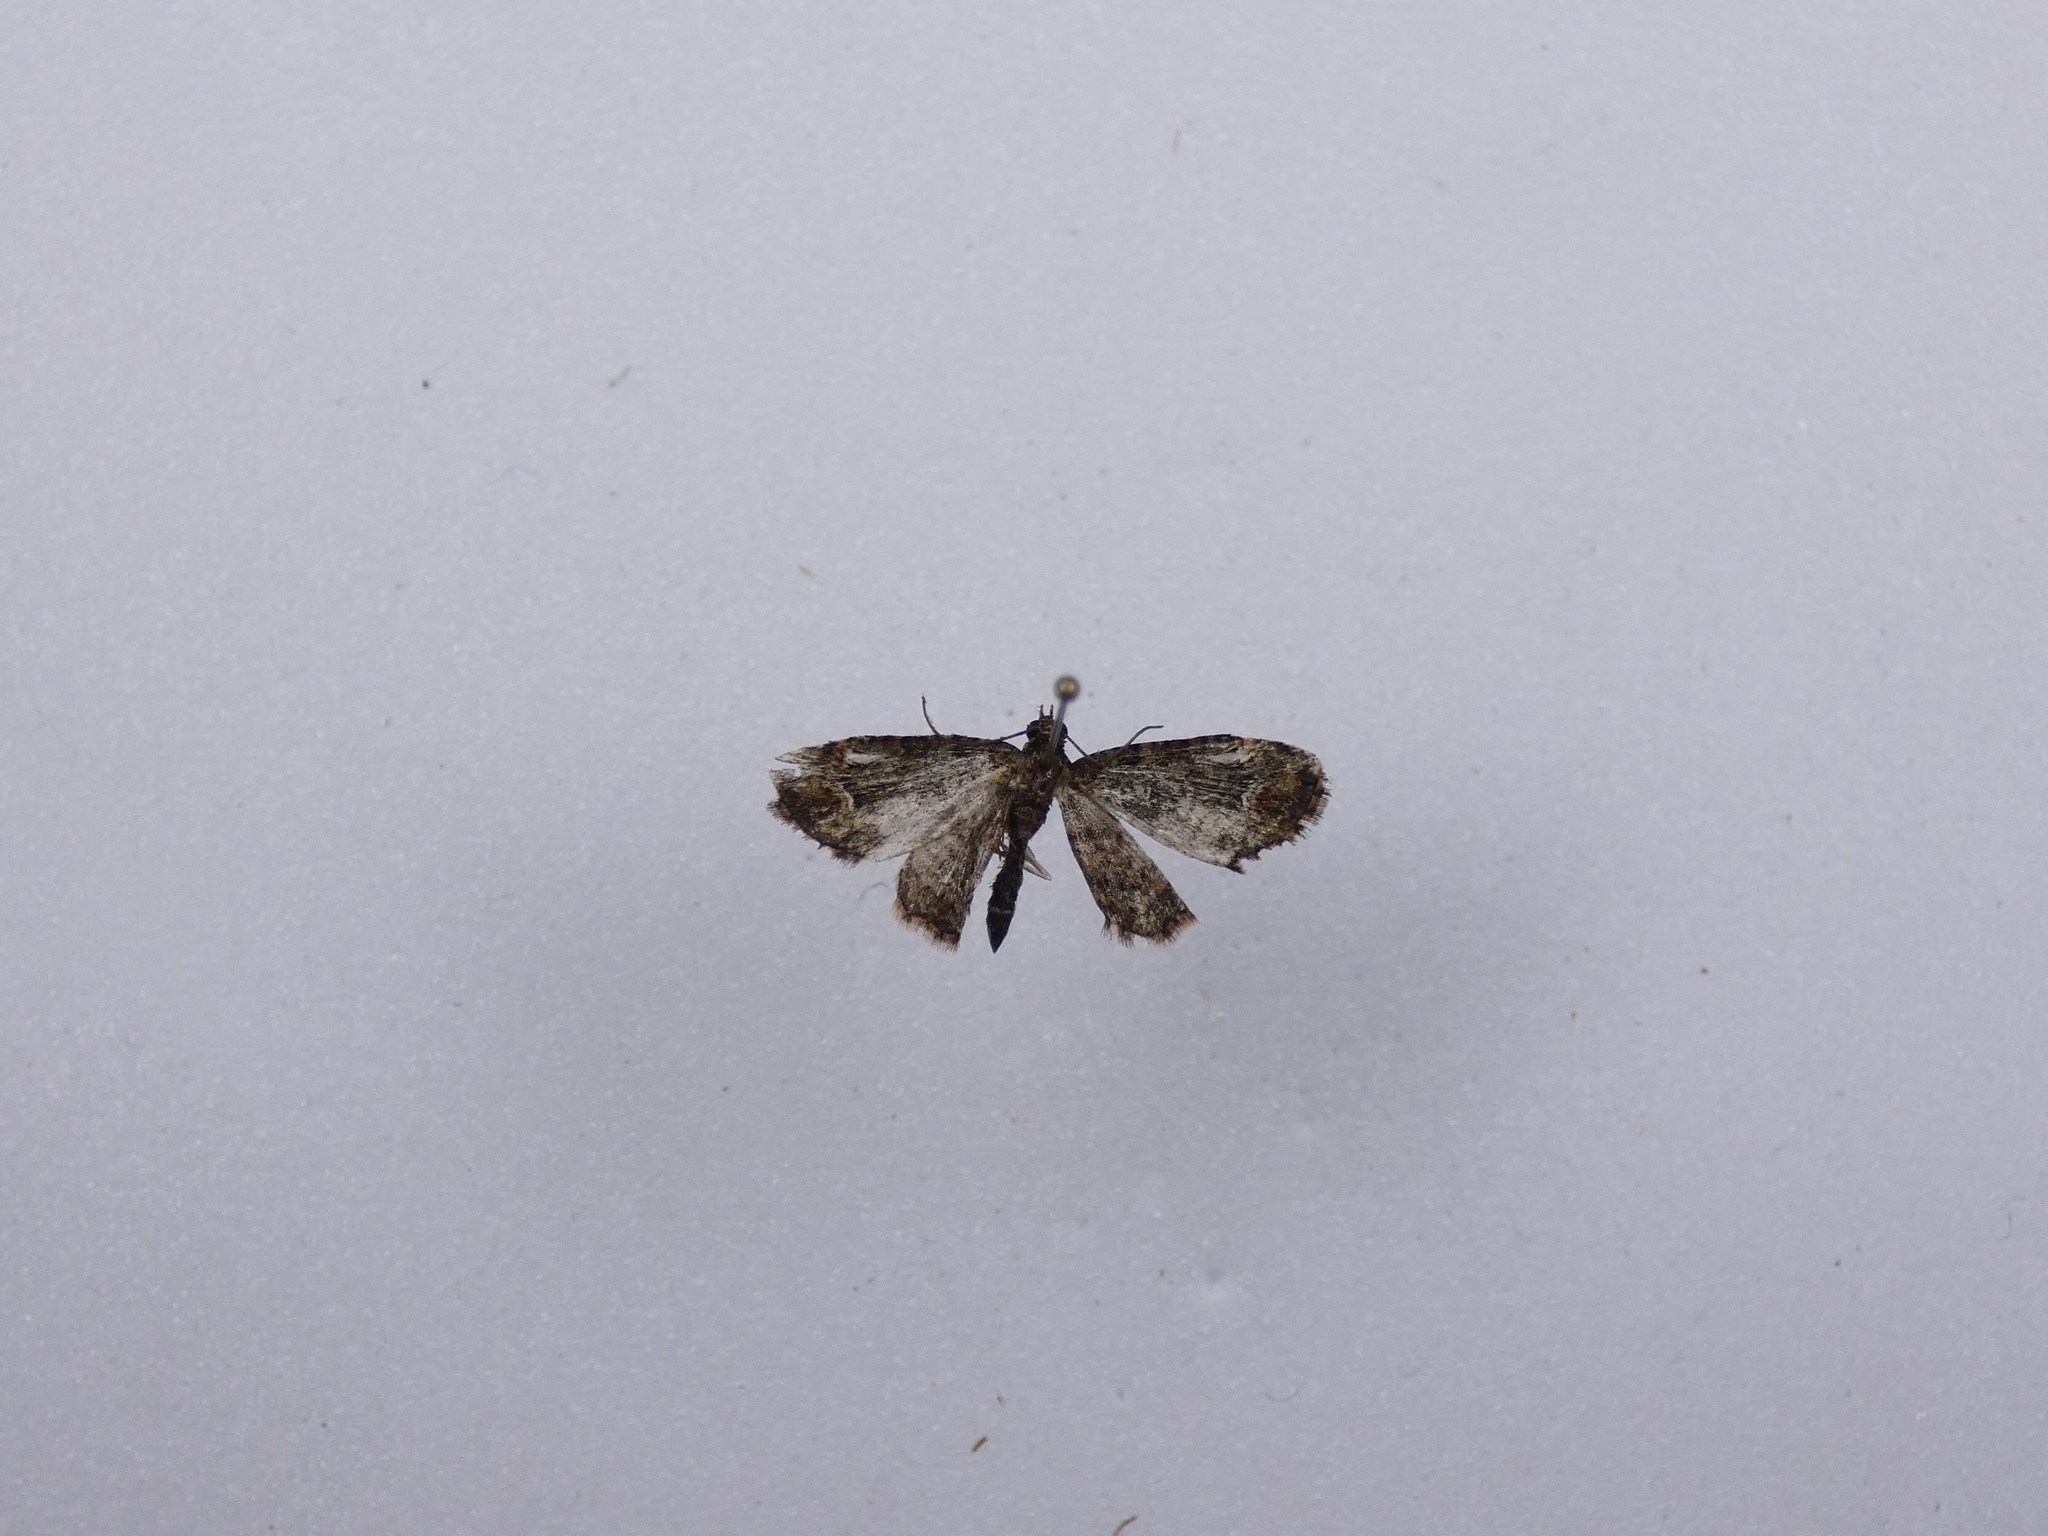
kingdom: Animalia
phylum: Arthropoda
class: Insecta
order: Lepidoptera
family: Geometridae
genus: Pasiphilodes
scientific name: Pasiphilodes testulata
